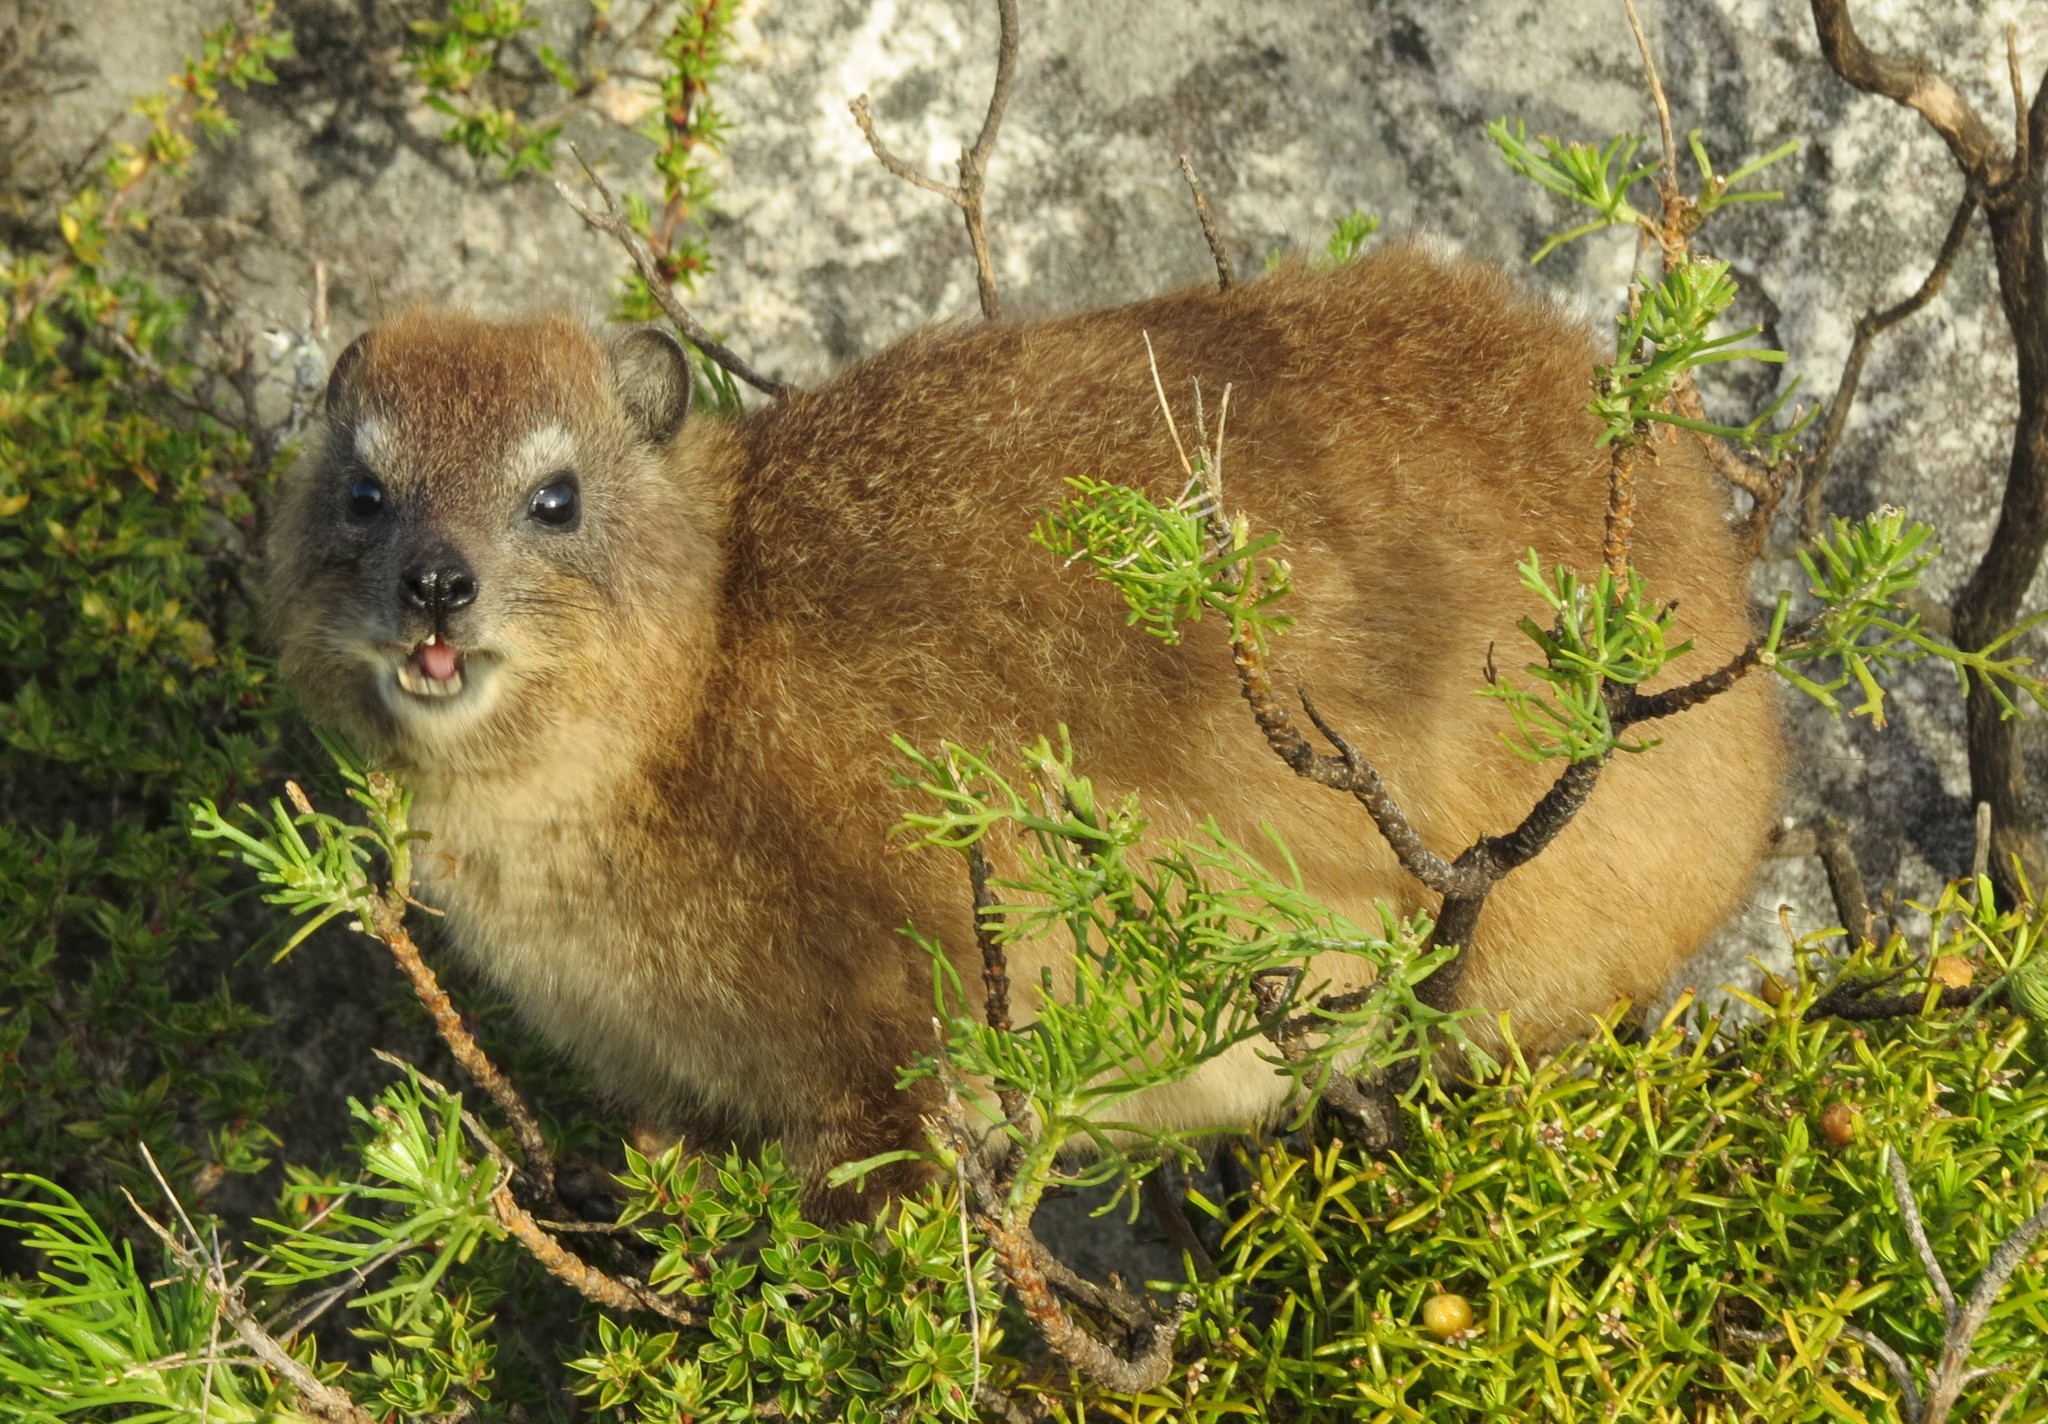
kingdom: Animalia
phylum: Chordata
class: Mammalia
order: Hyracoidea
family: Procaviidae
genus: Procavia
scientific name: Procavia capensis
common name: Rock hyrax
